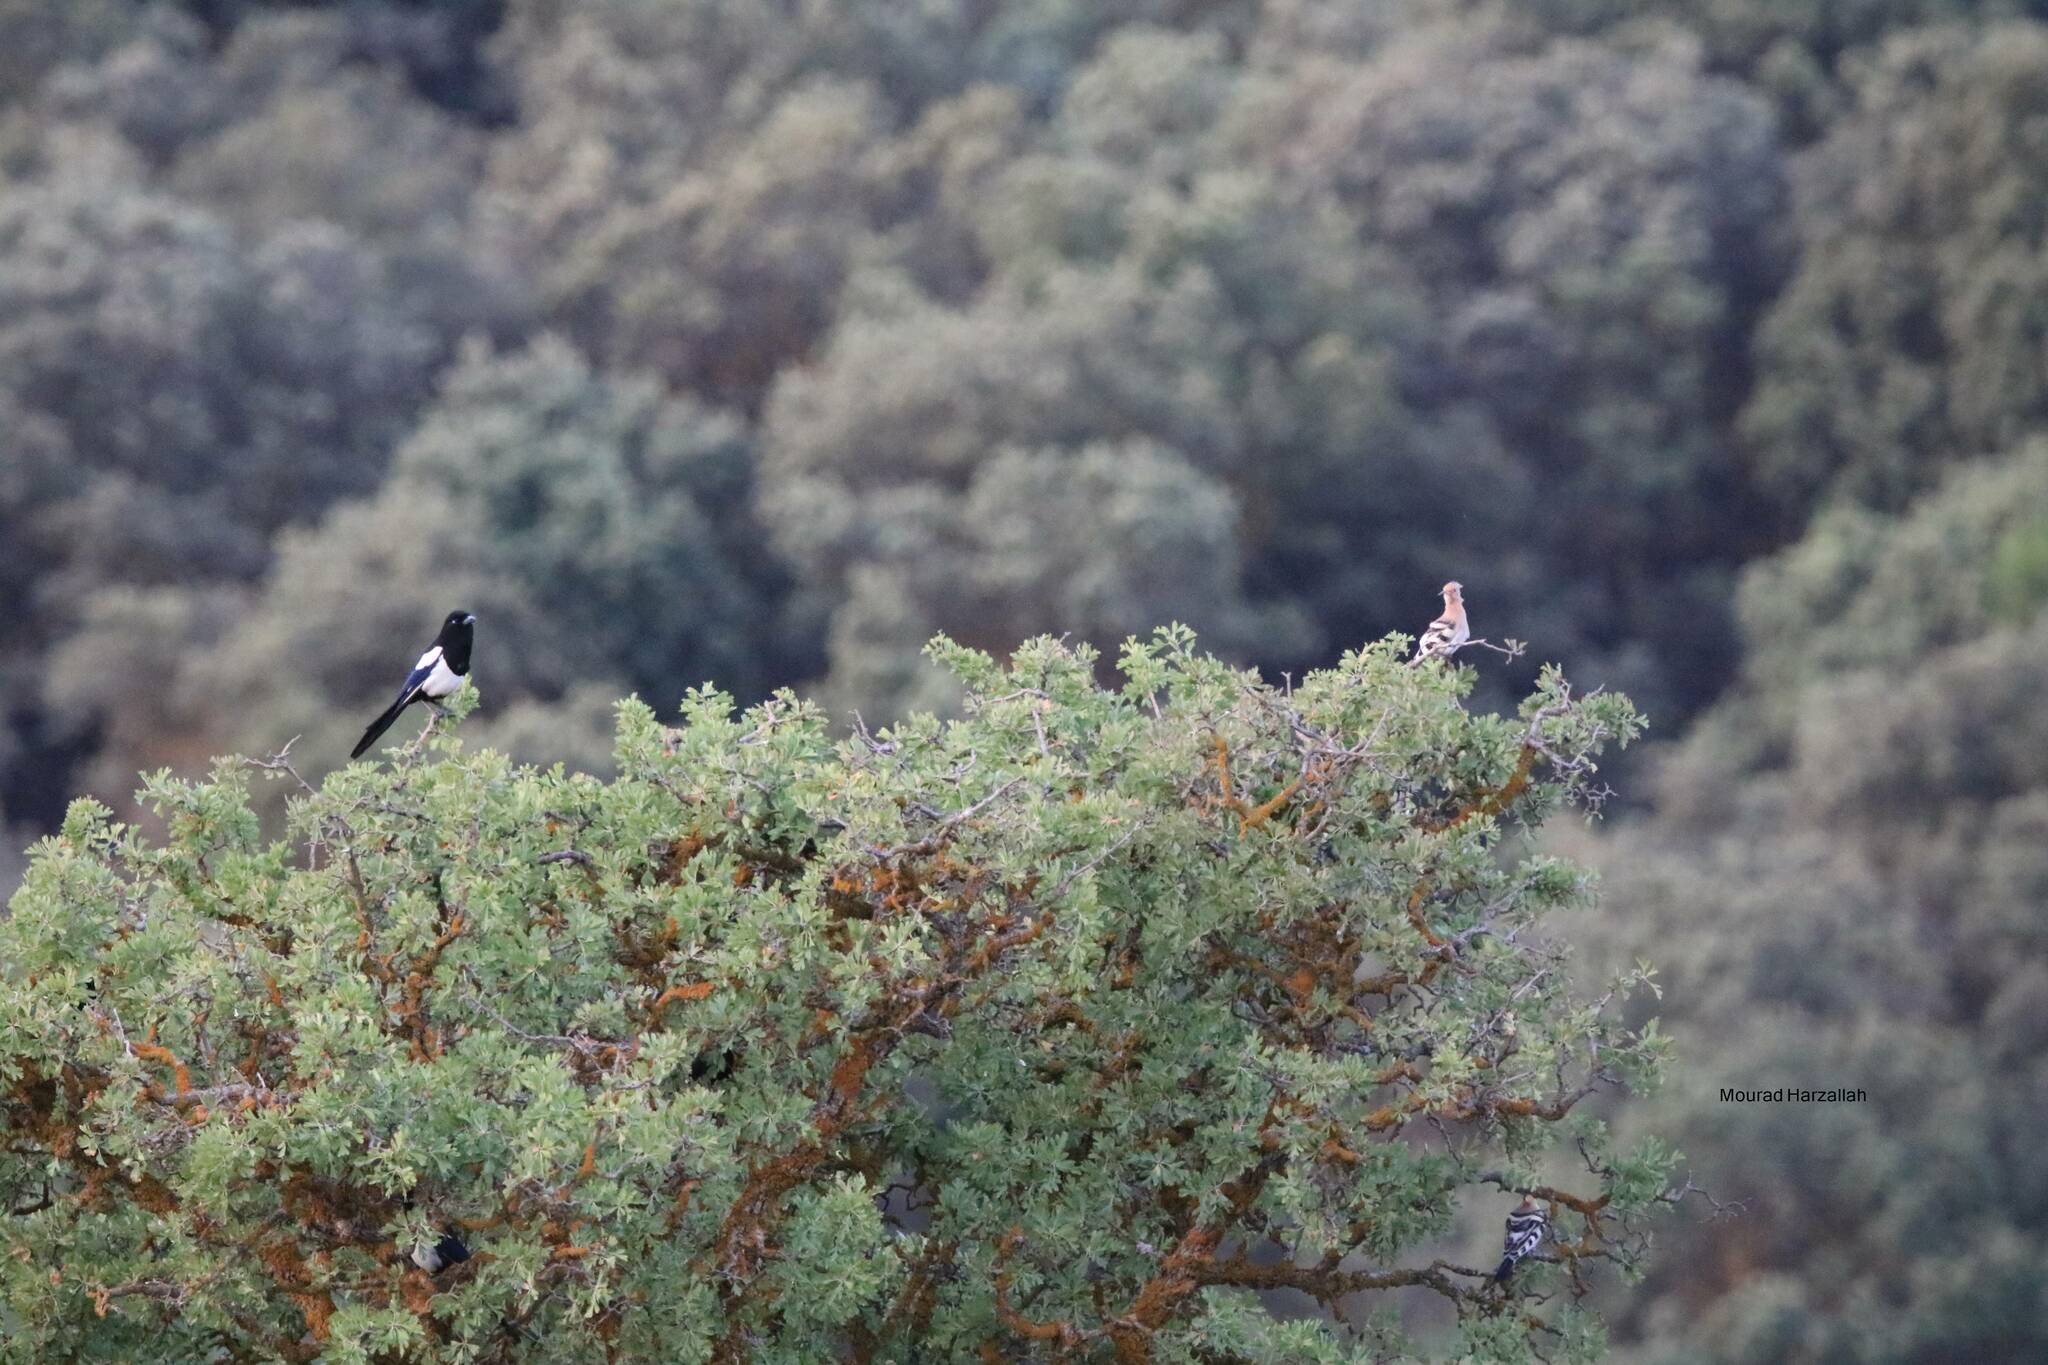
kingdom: Animalia
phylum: Chordata
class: Aves
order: Passeriformes
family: Corvidae
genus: Pica
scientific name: Pica mauritanica
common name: Maghreb magpie
